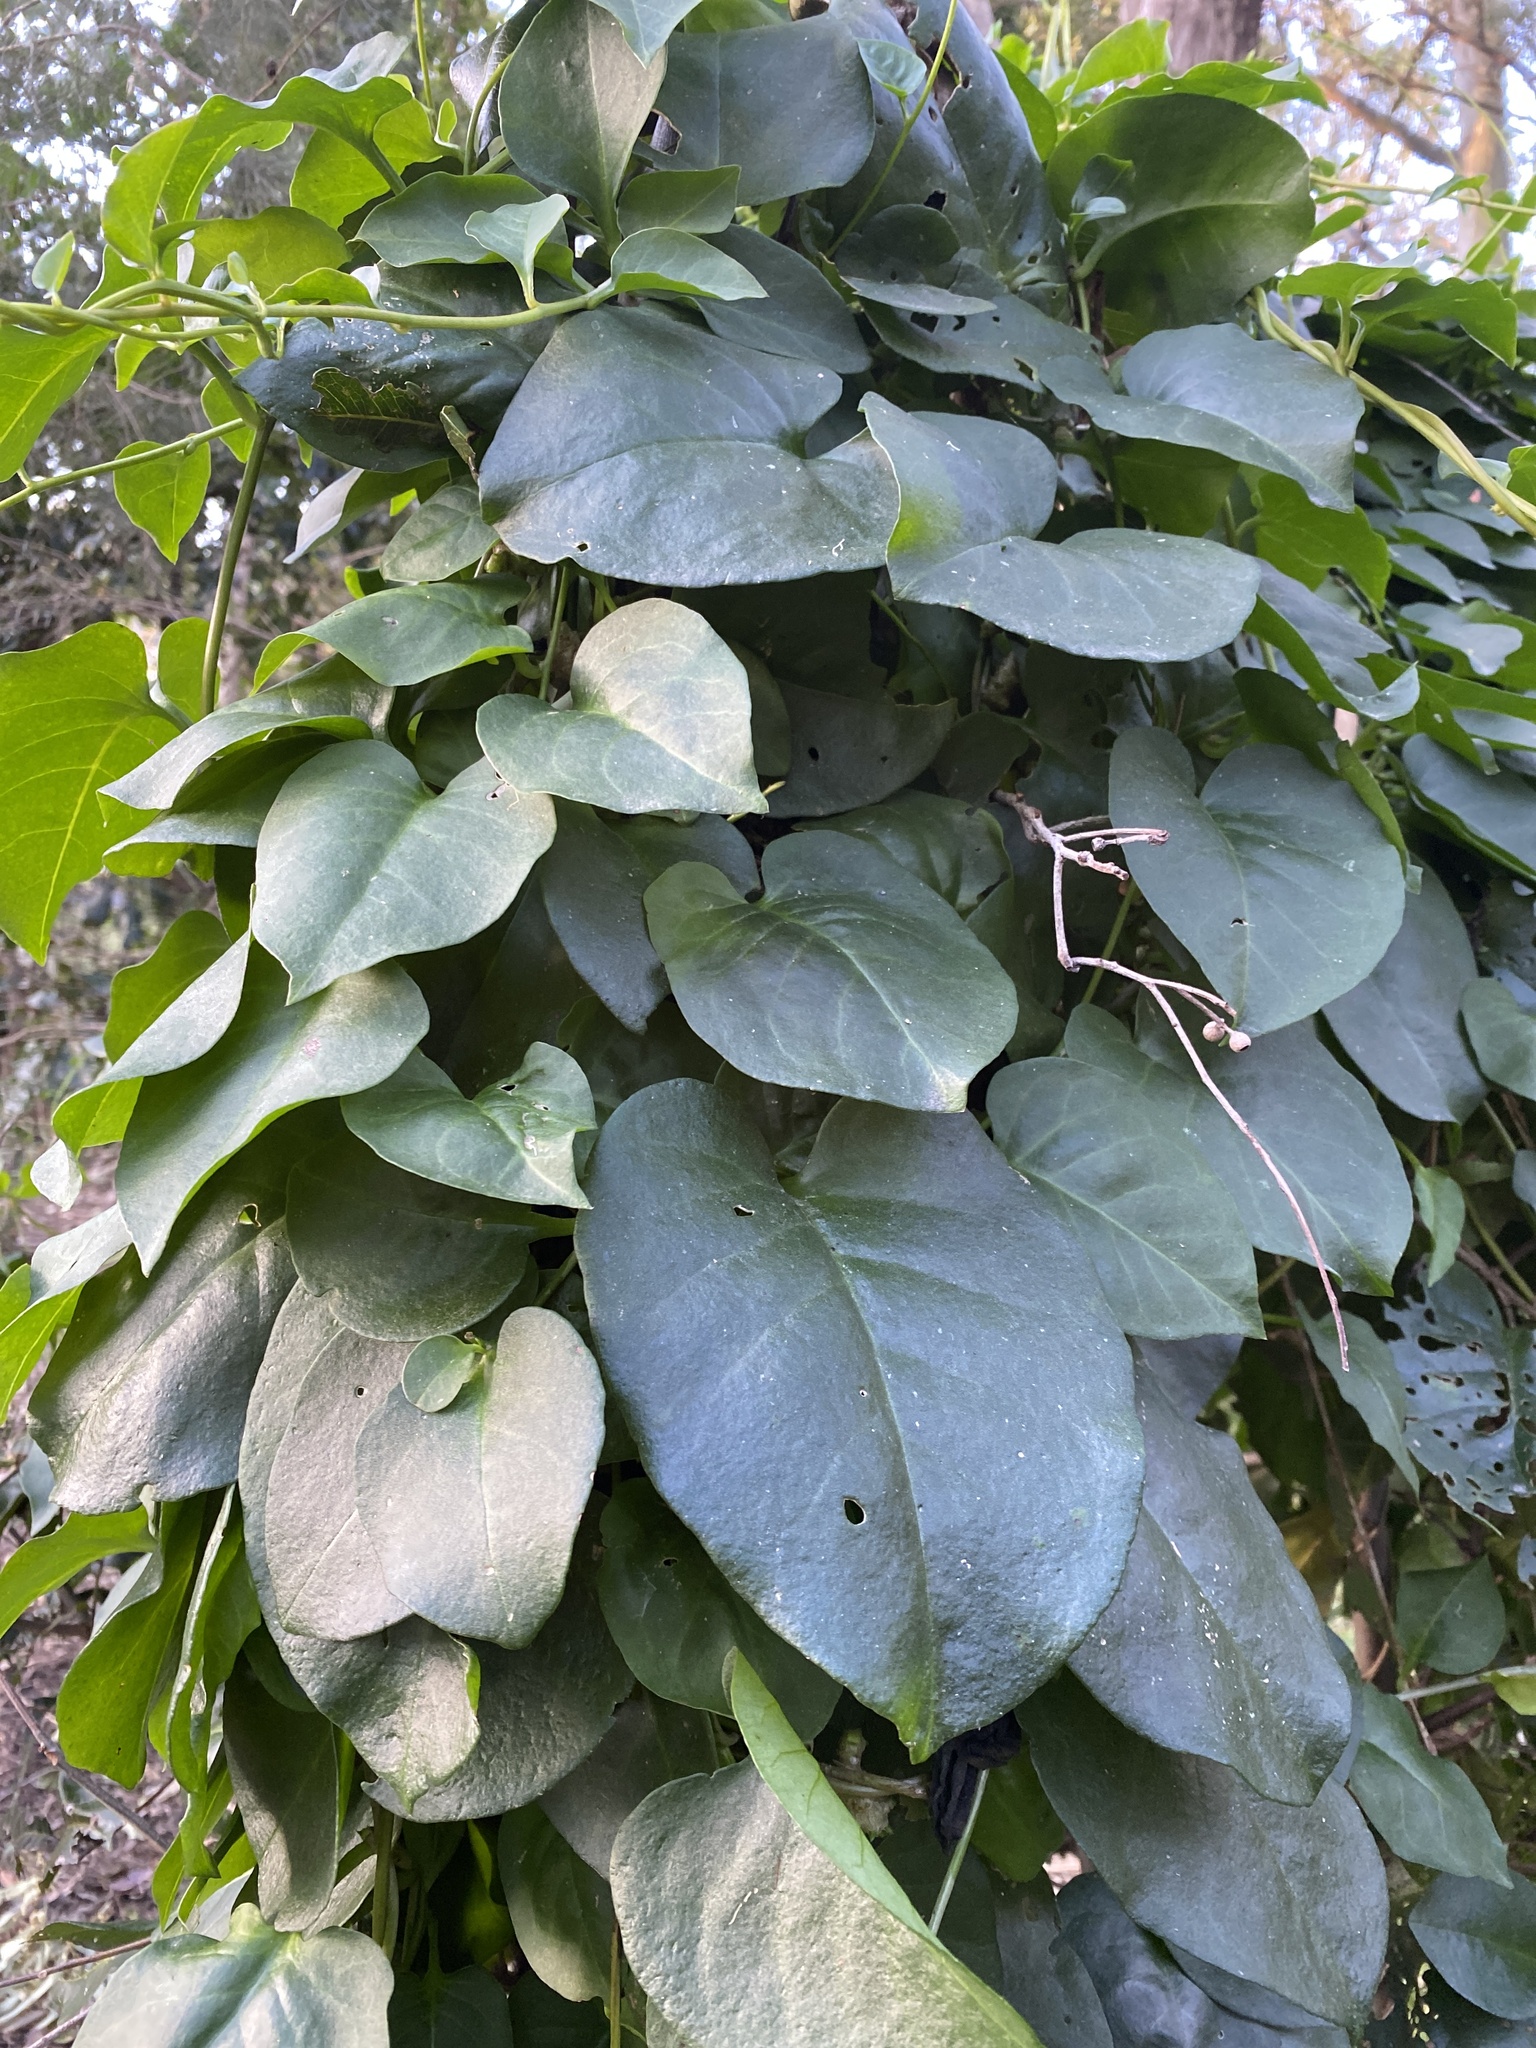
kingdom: Plantae
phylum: Tracheophyta
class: Magnoliopsida
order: Caryophyllales
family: Basellaceae
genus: Anredera
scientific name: Anredera cordifolia
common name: Heartleaf madeiravine
